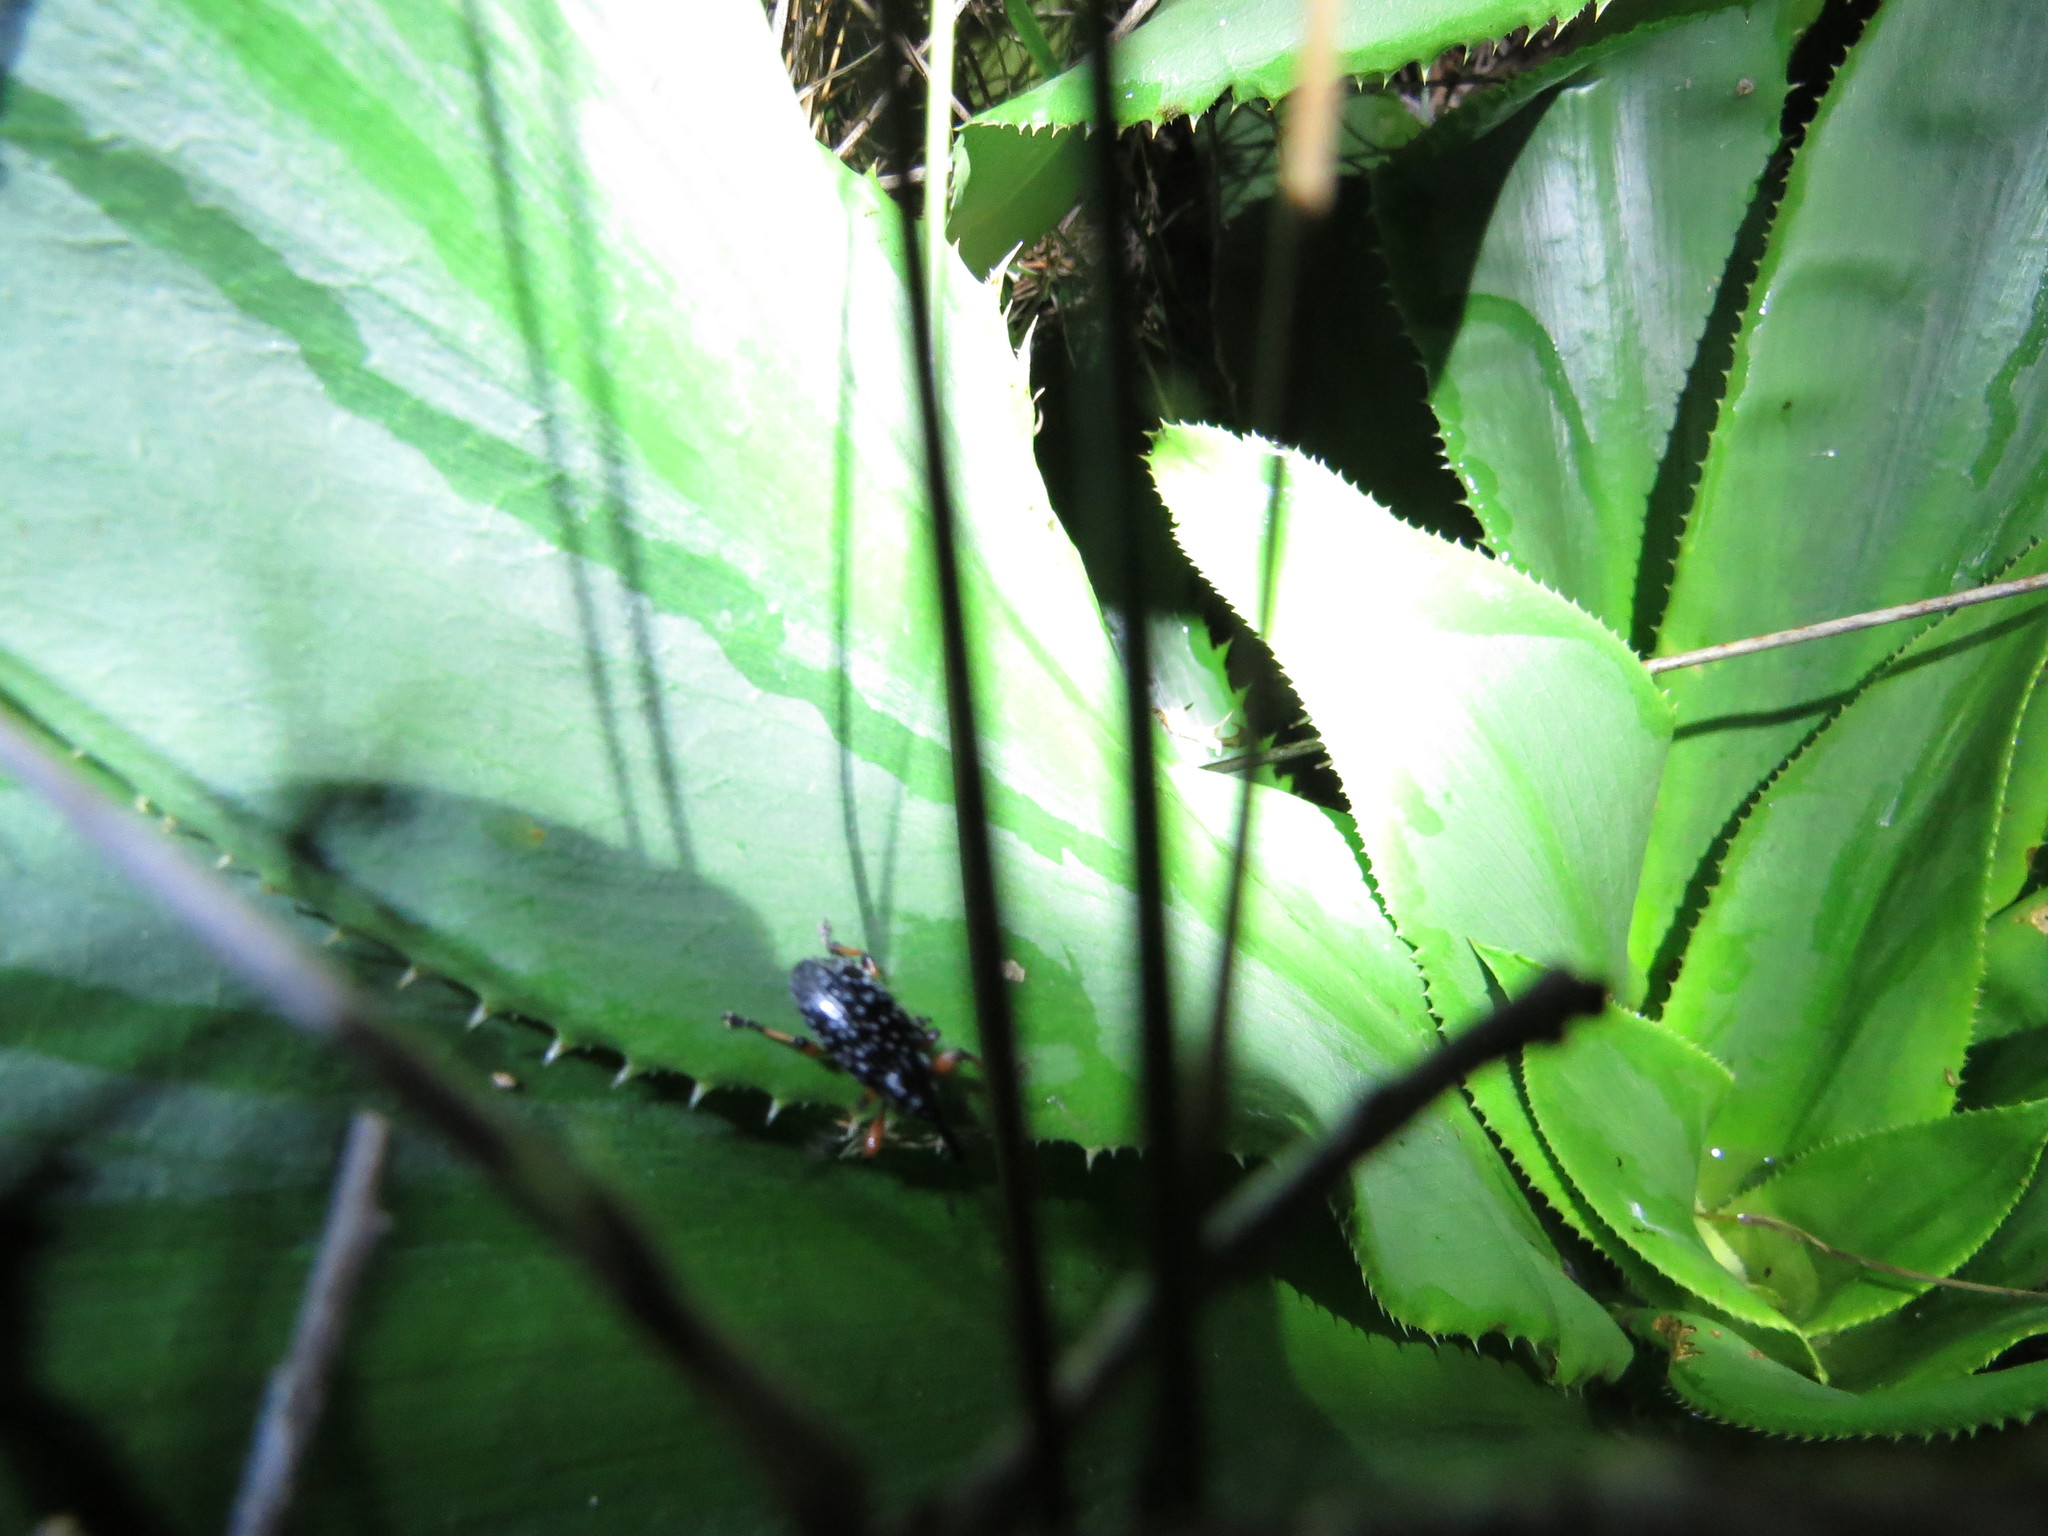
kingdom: Animalia
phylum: Arthropoda
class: Insecta
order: Coleoptera
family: Curculionidae
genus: Heilipodus
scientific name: Heilipodus erythropus
